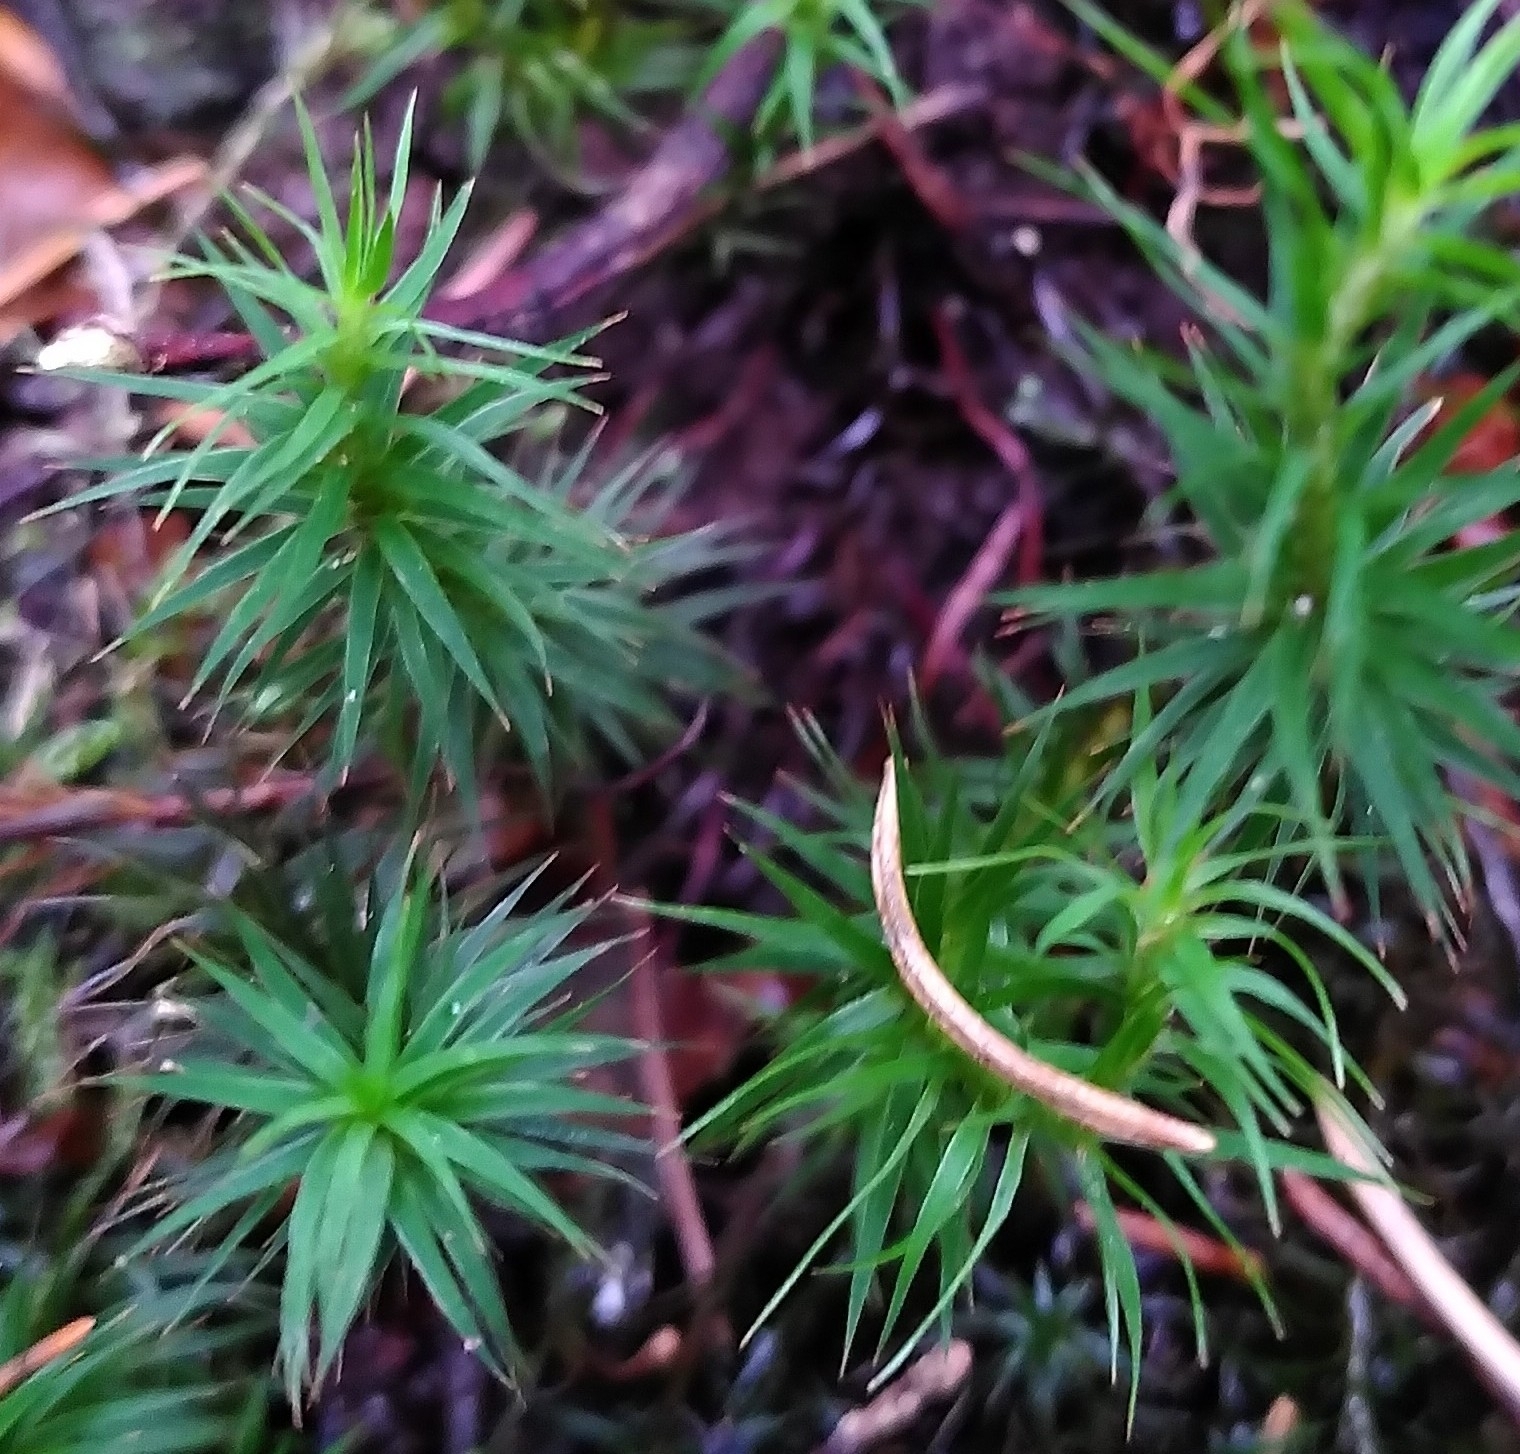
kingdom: Plantae
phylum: Bryophyta
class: Polytrichopsida
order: Polytrichales
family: Polytrichaceae
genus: Polytrichum
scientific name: Polytrichum formosum
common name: Bank haircap moss
